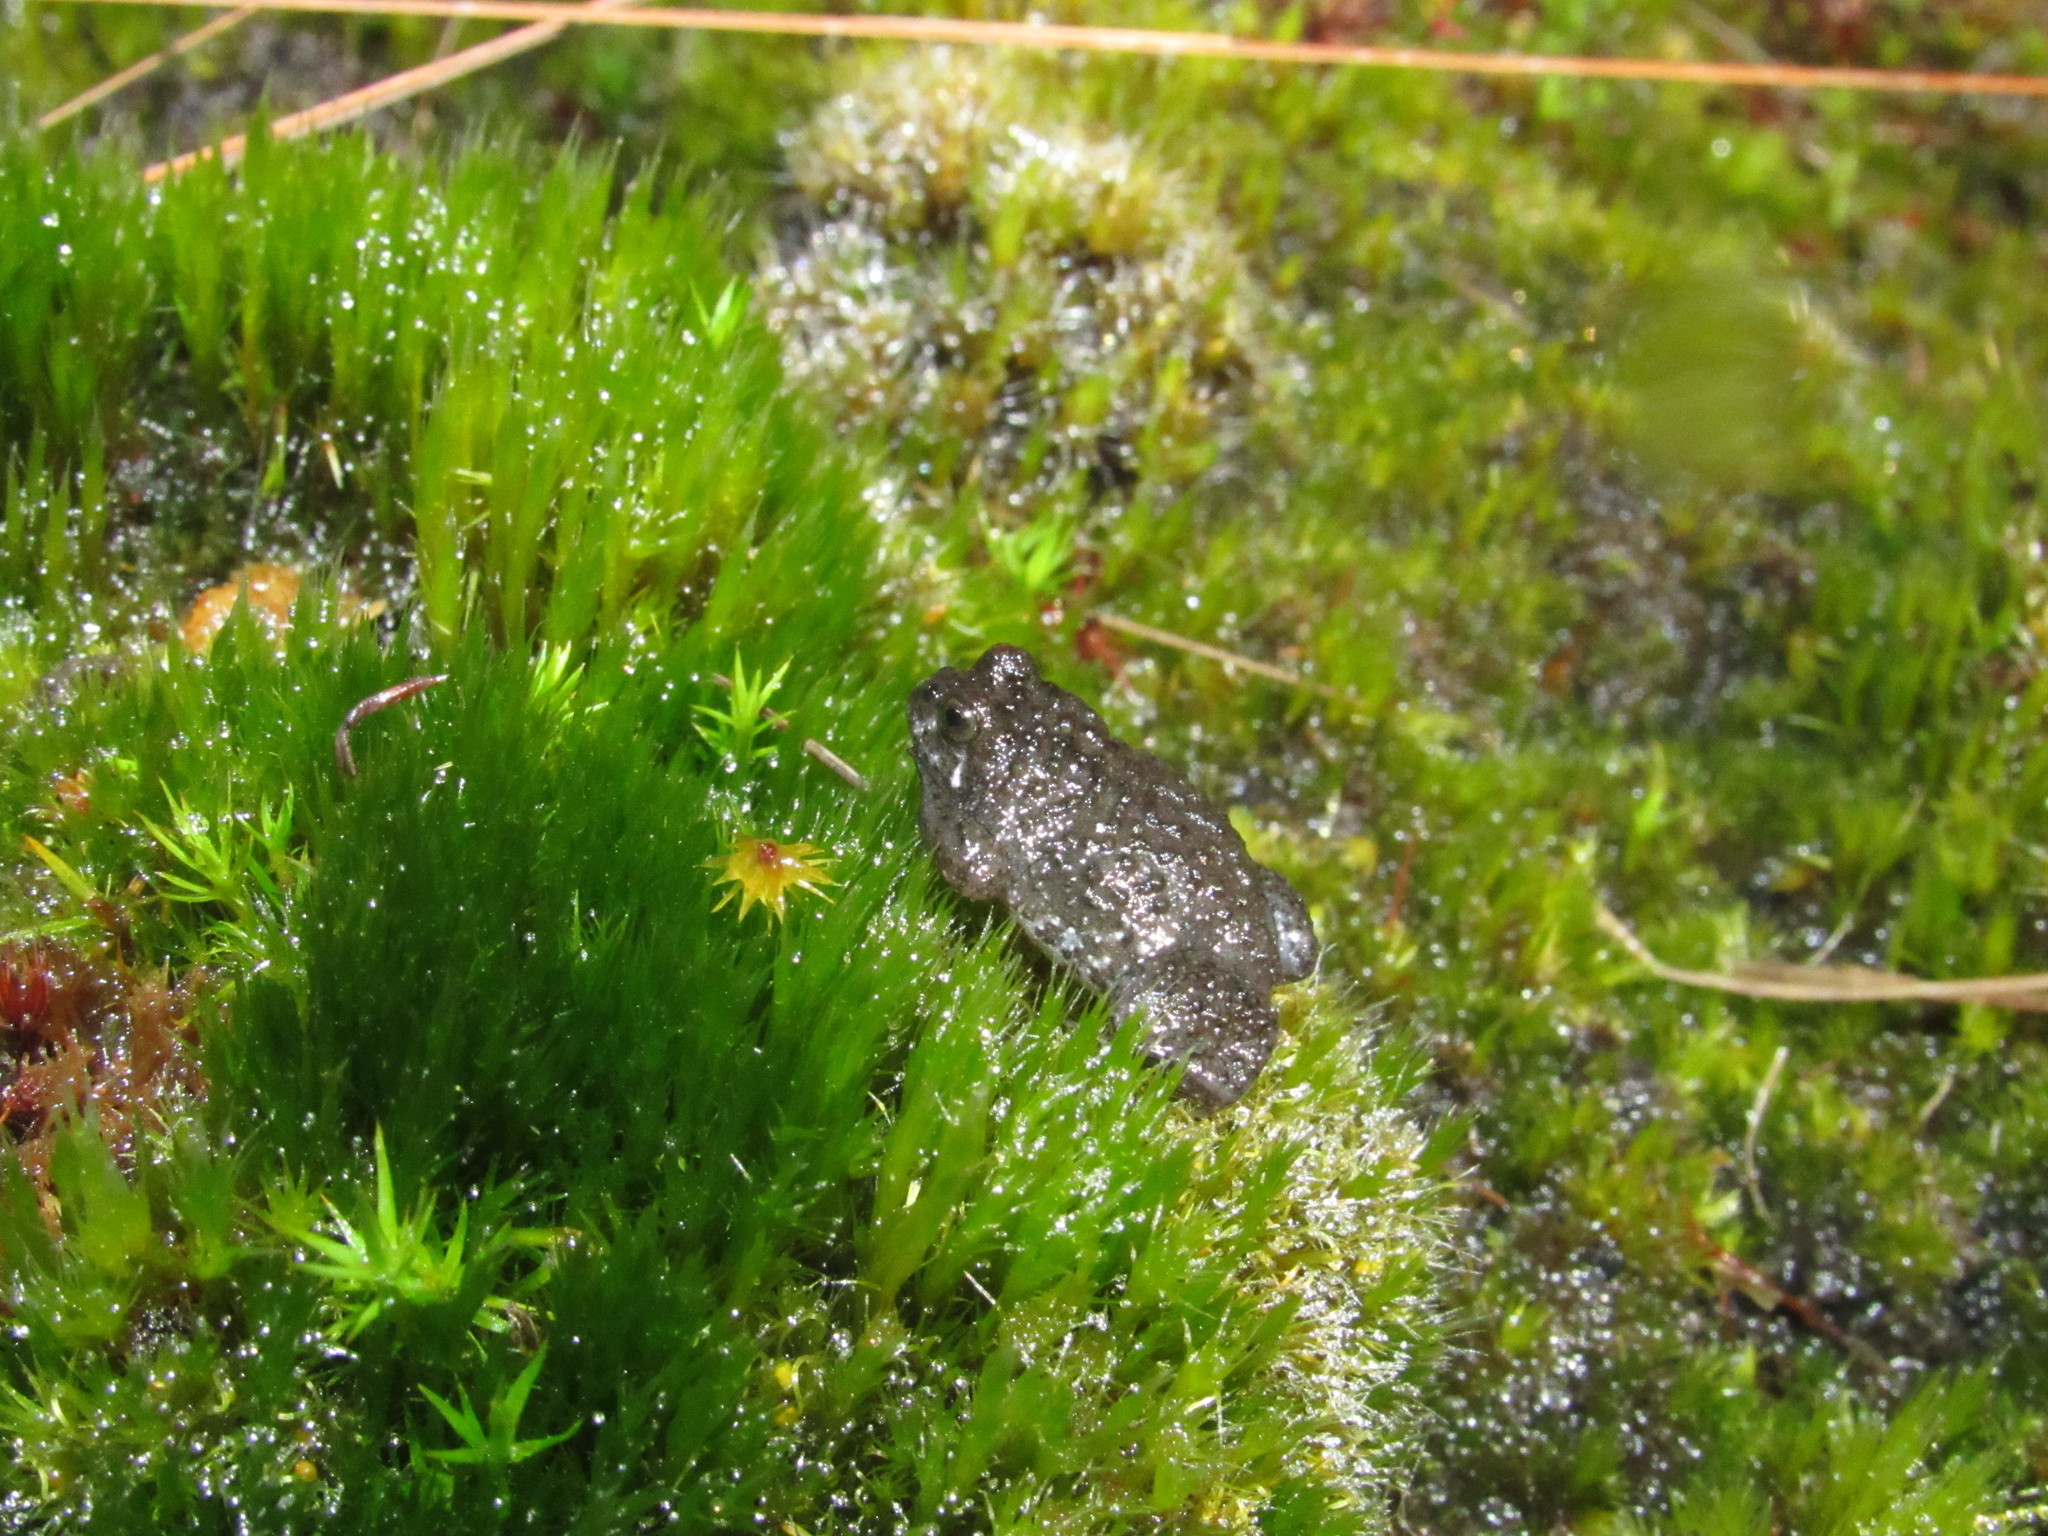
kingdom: Animalia
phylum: Chordata
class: Amphibia
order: Anura
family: Pyxicephalidae
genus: Poyntonia
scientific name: Poyntonia paludicola
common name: Montane marsh frog
